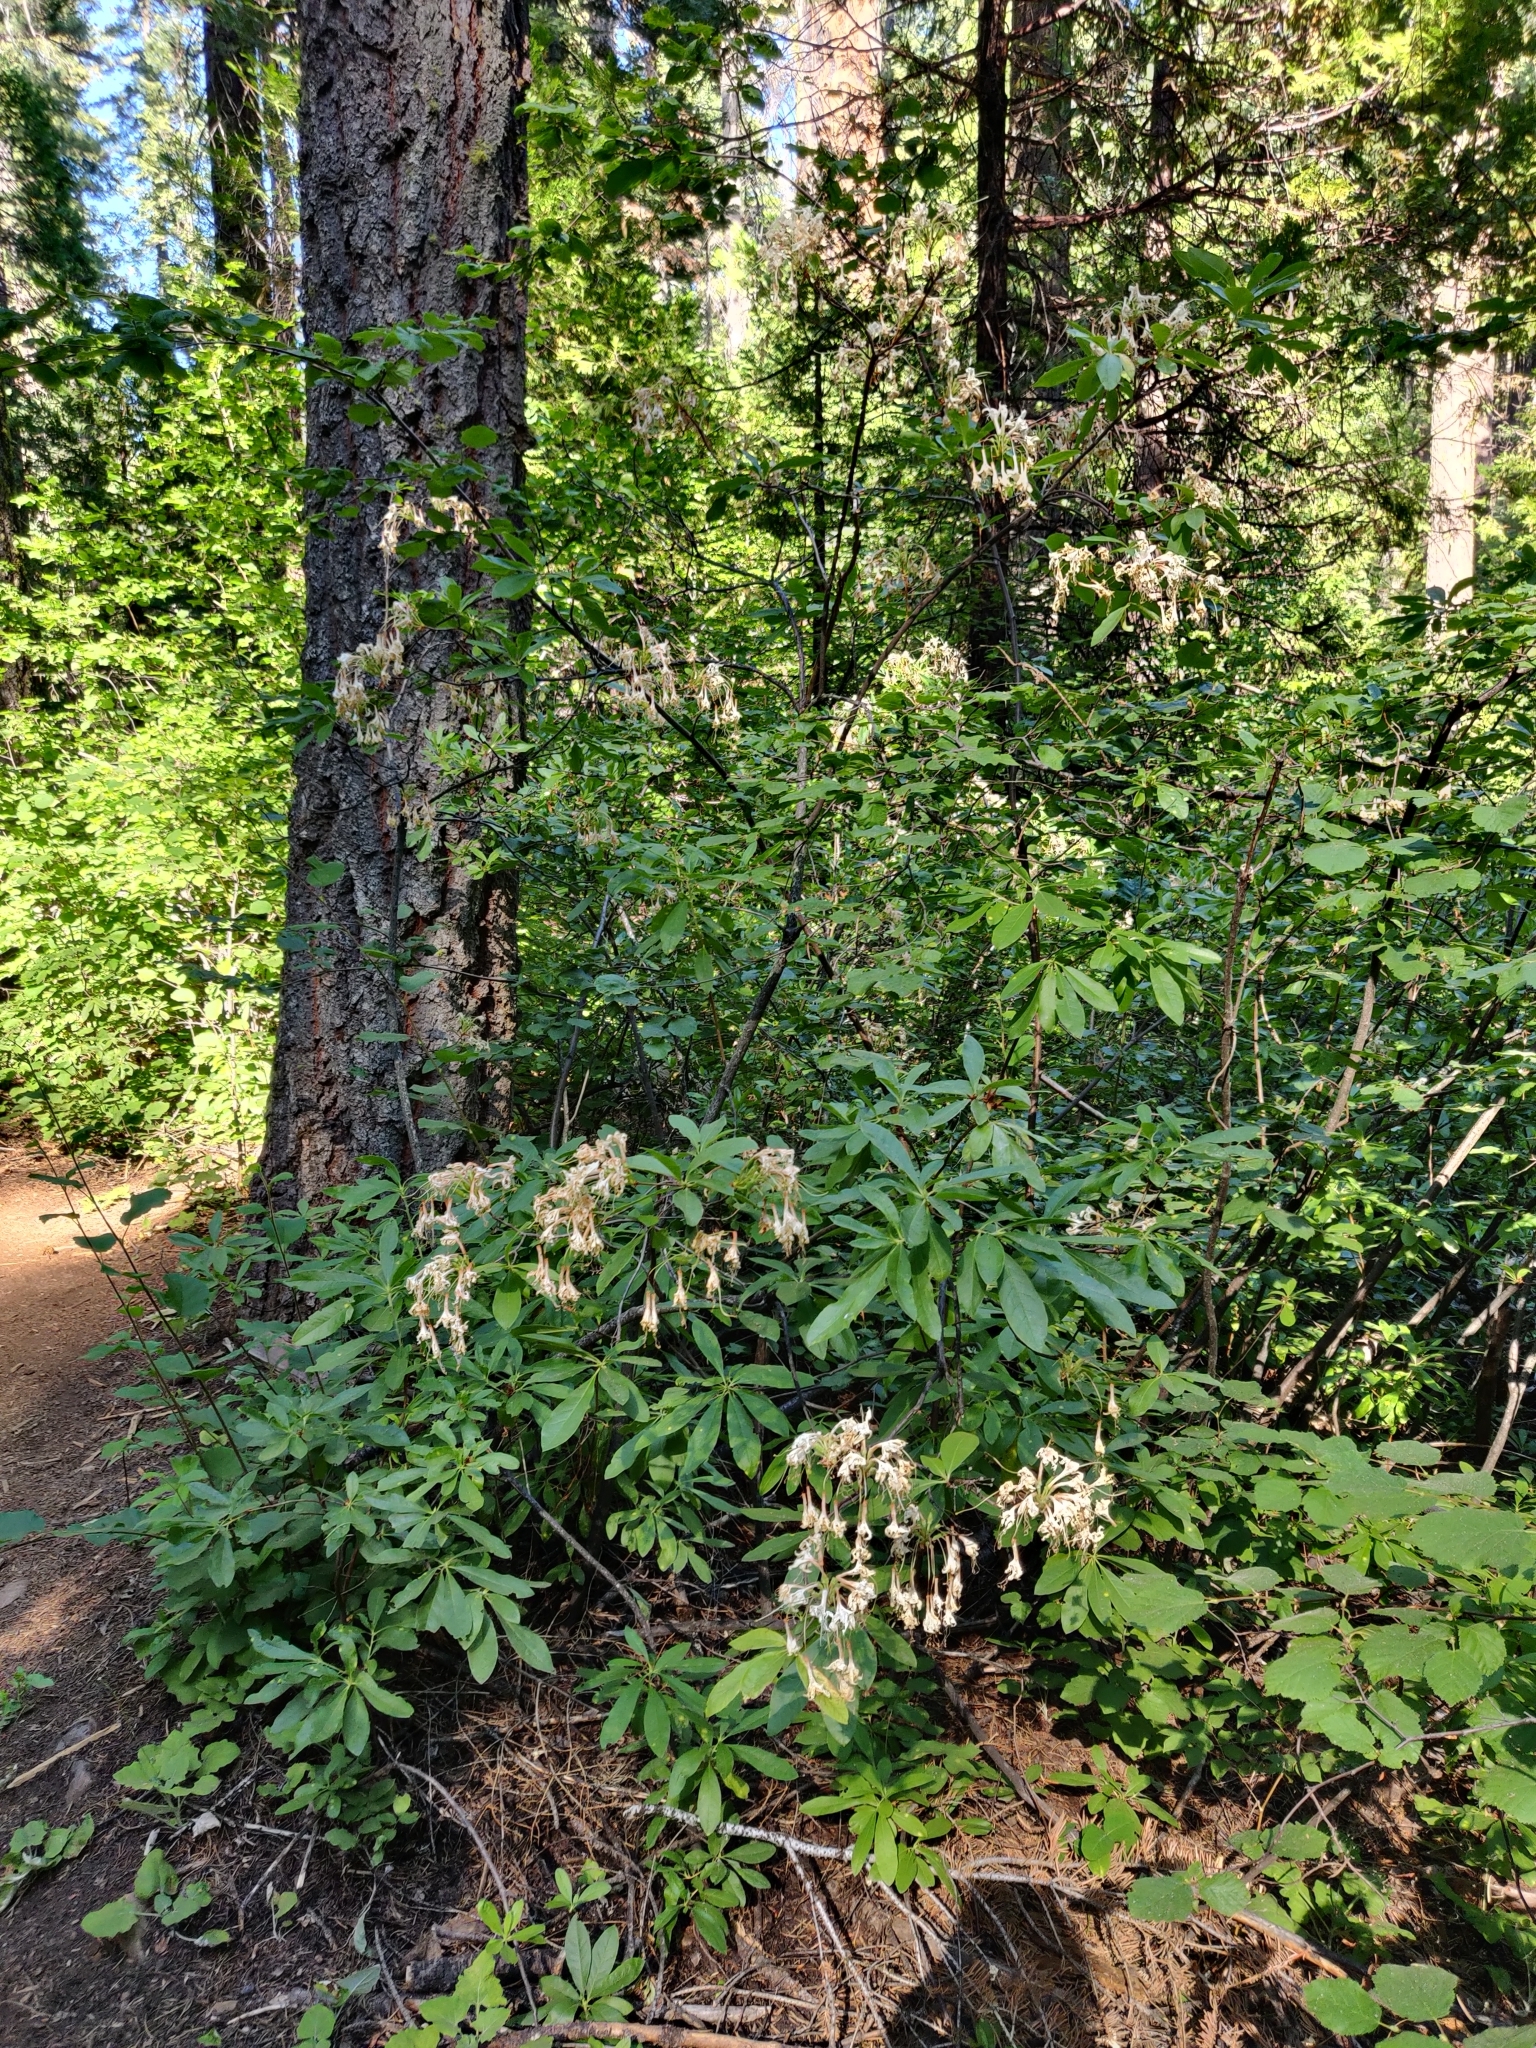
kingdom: Plantae
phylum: Tracheophyta
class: Magnoliopsida
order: Ericales
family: Ericaceae
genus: Rhododendron
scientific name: Rhododendron occidentale
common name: Western azalea
